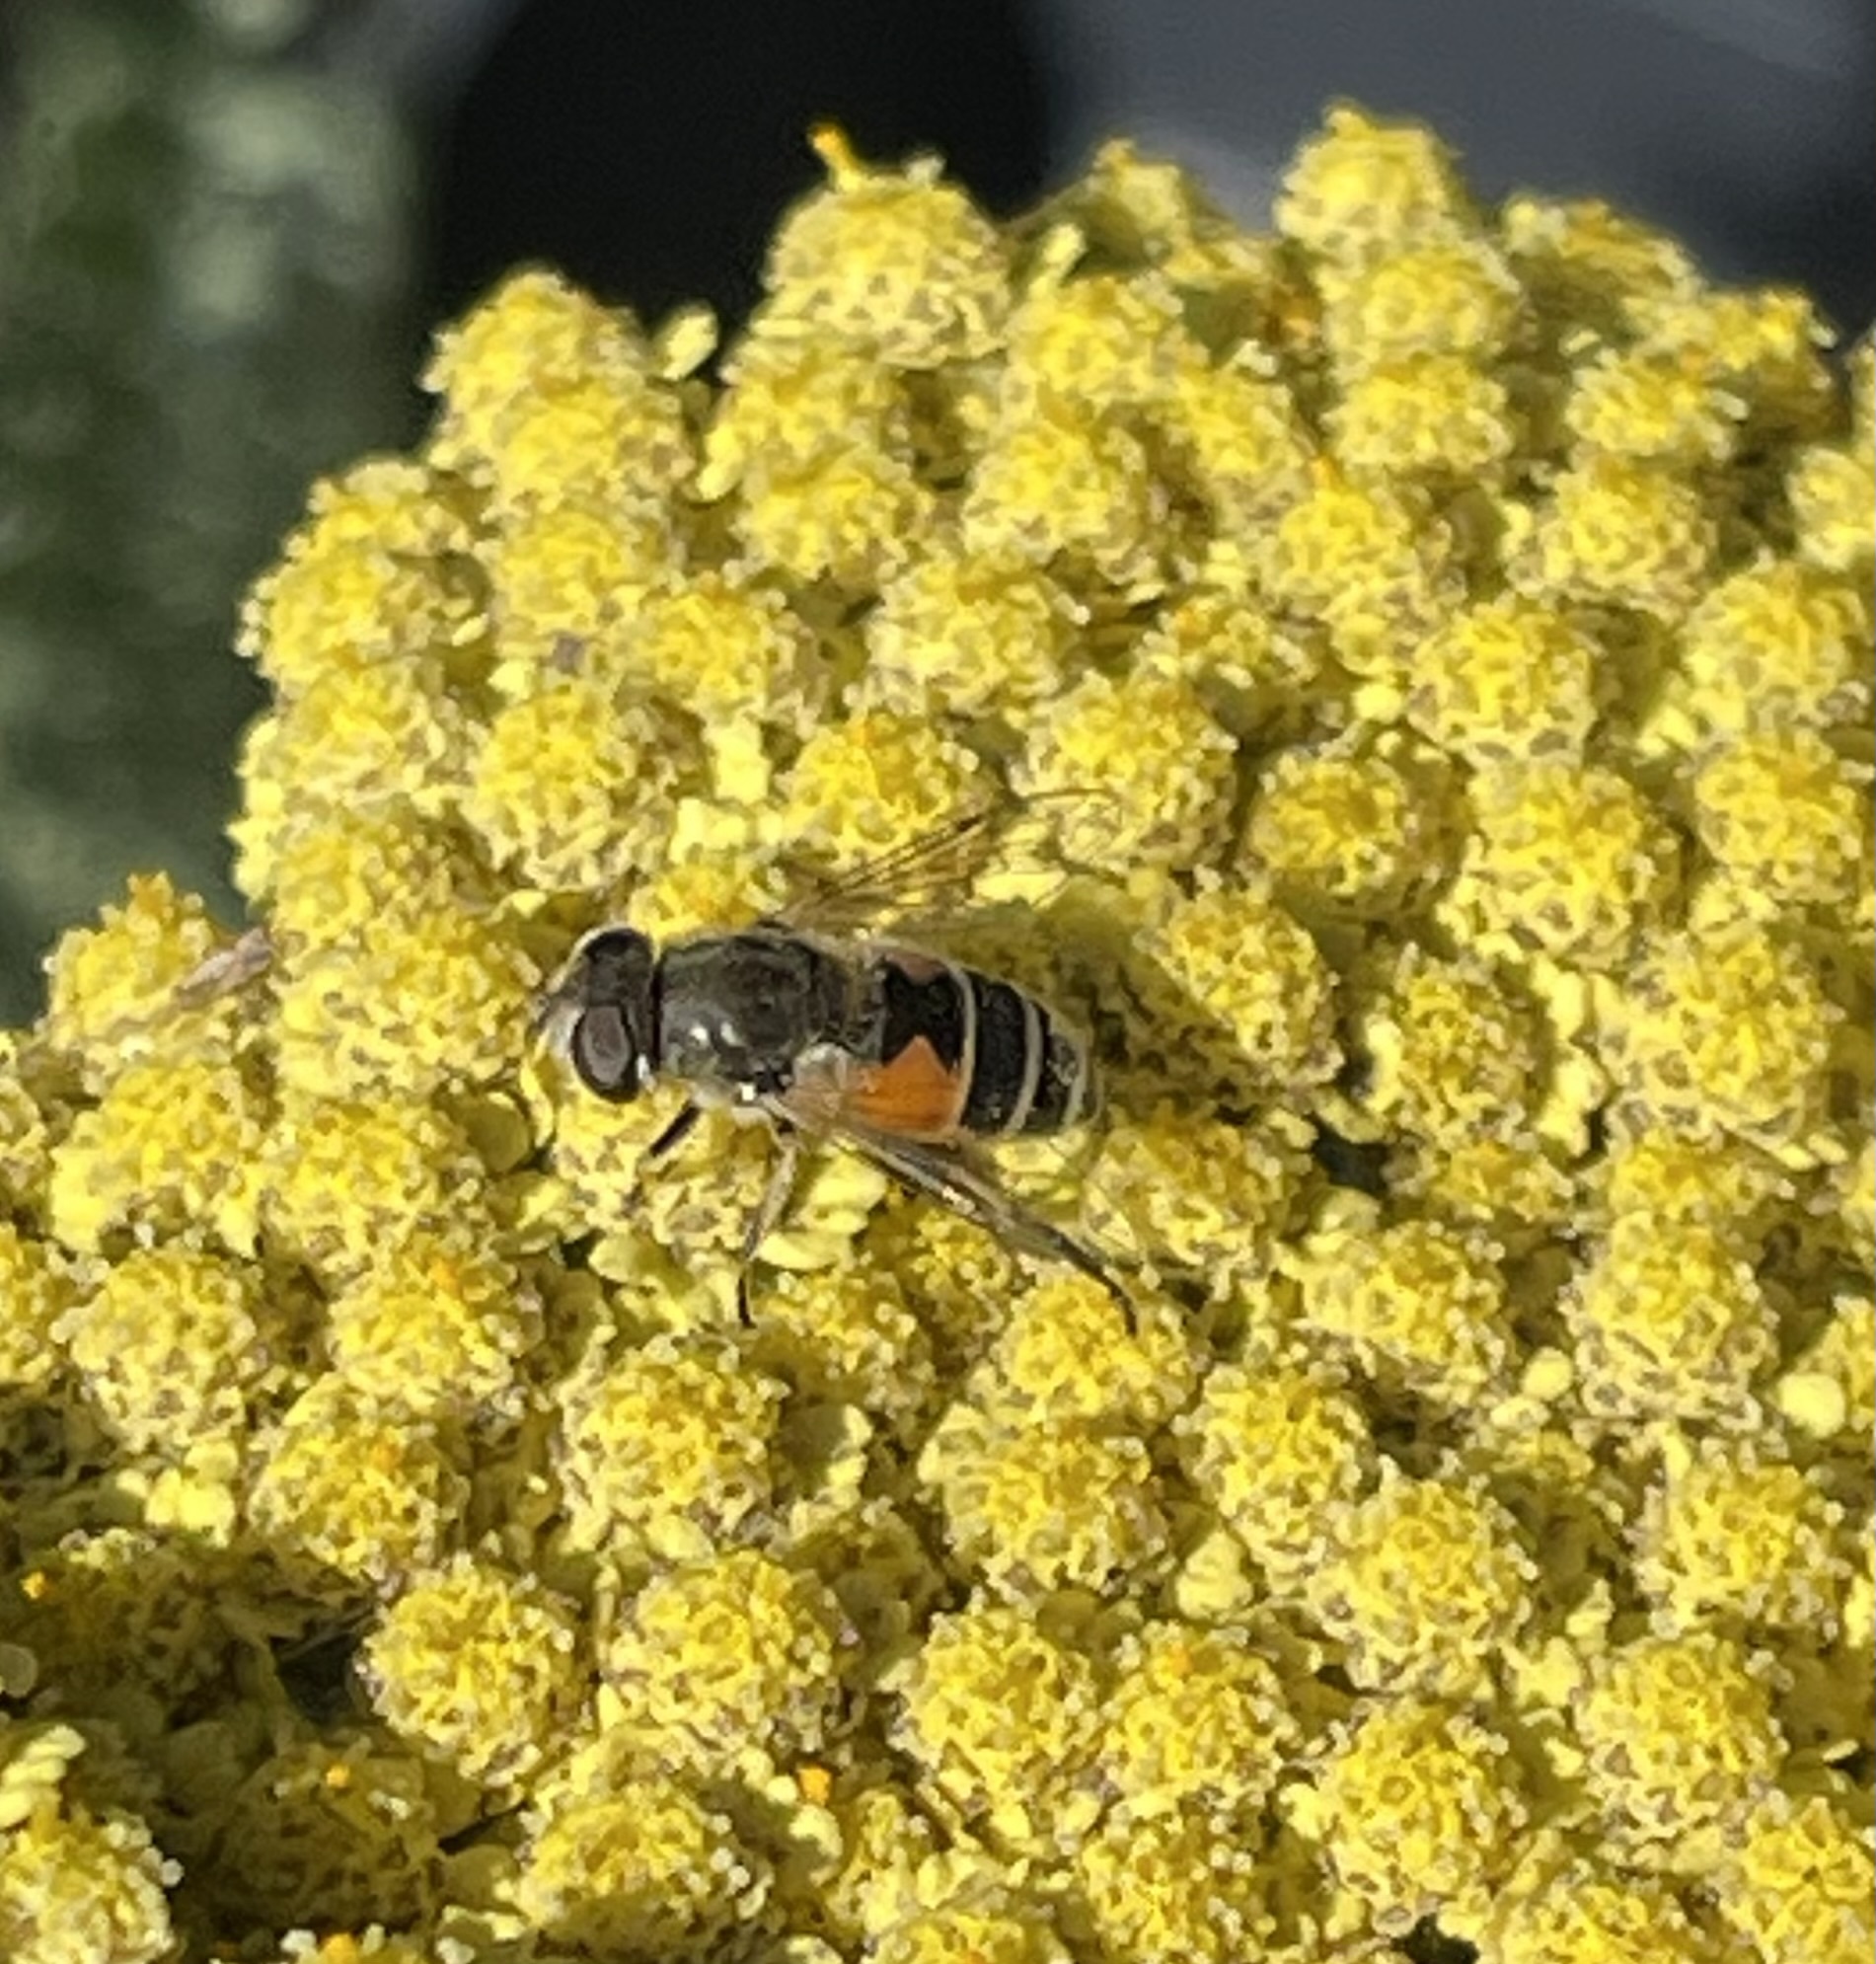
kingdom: Animalia
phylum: Arthropoda
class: Insecta
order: Diptera
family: Syrphidae
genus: Eristalis
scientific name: Eristalis arbustorum
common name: Hover fly
